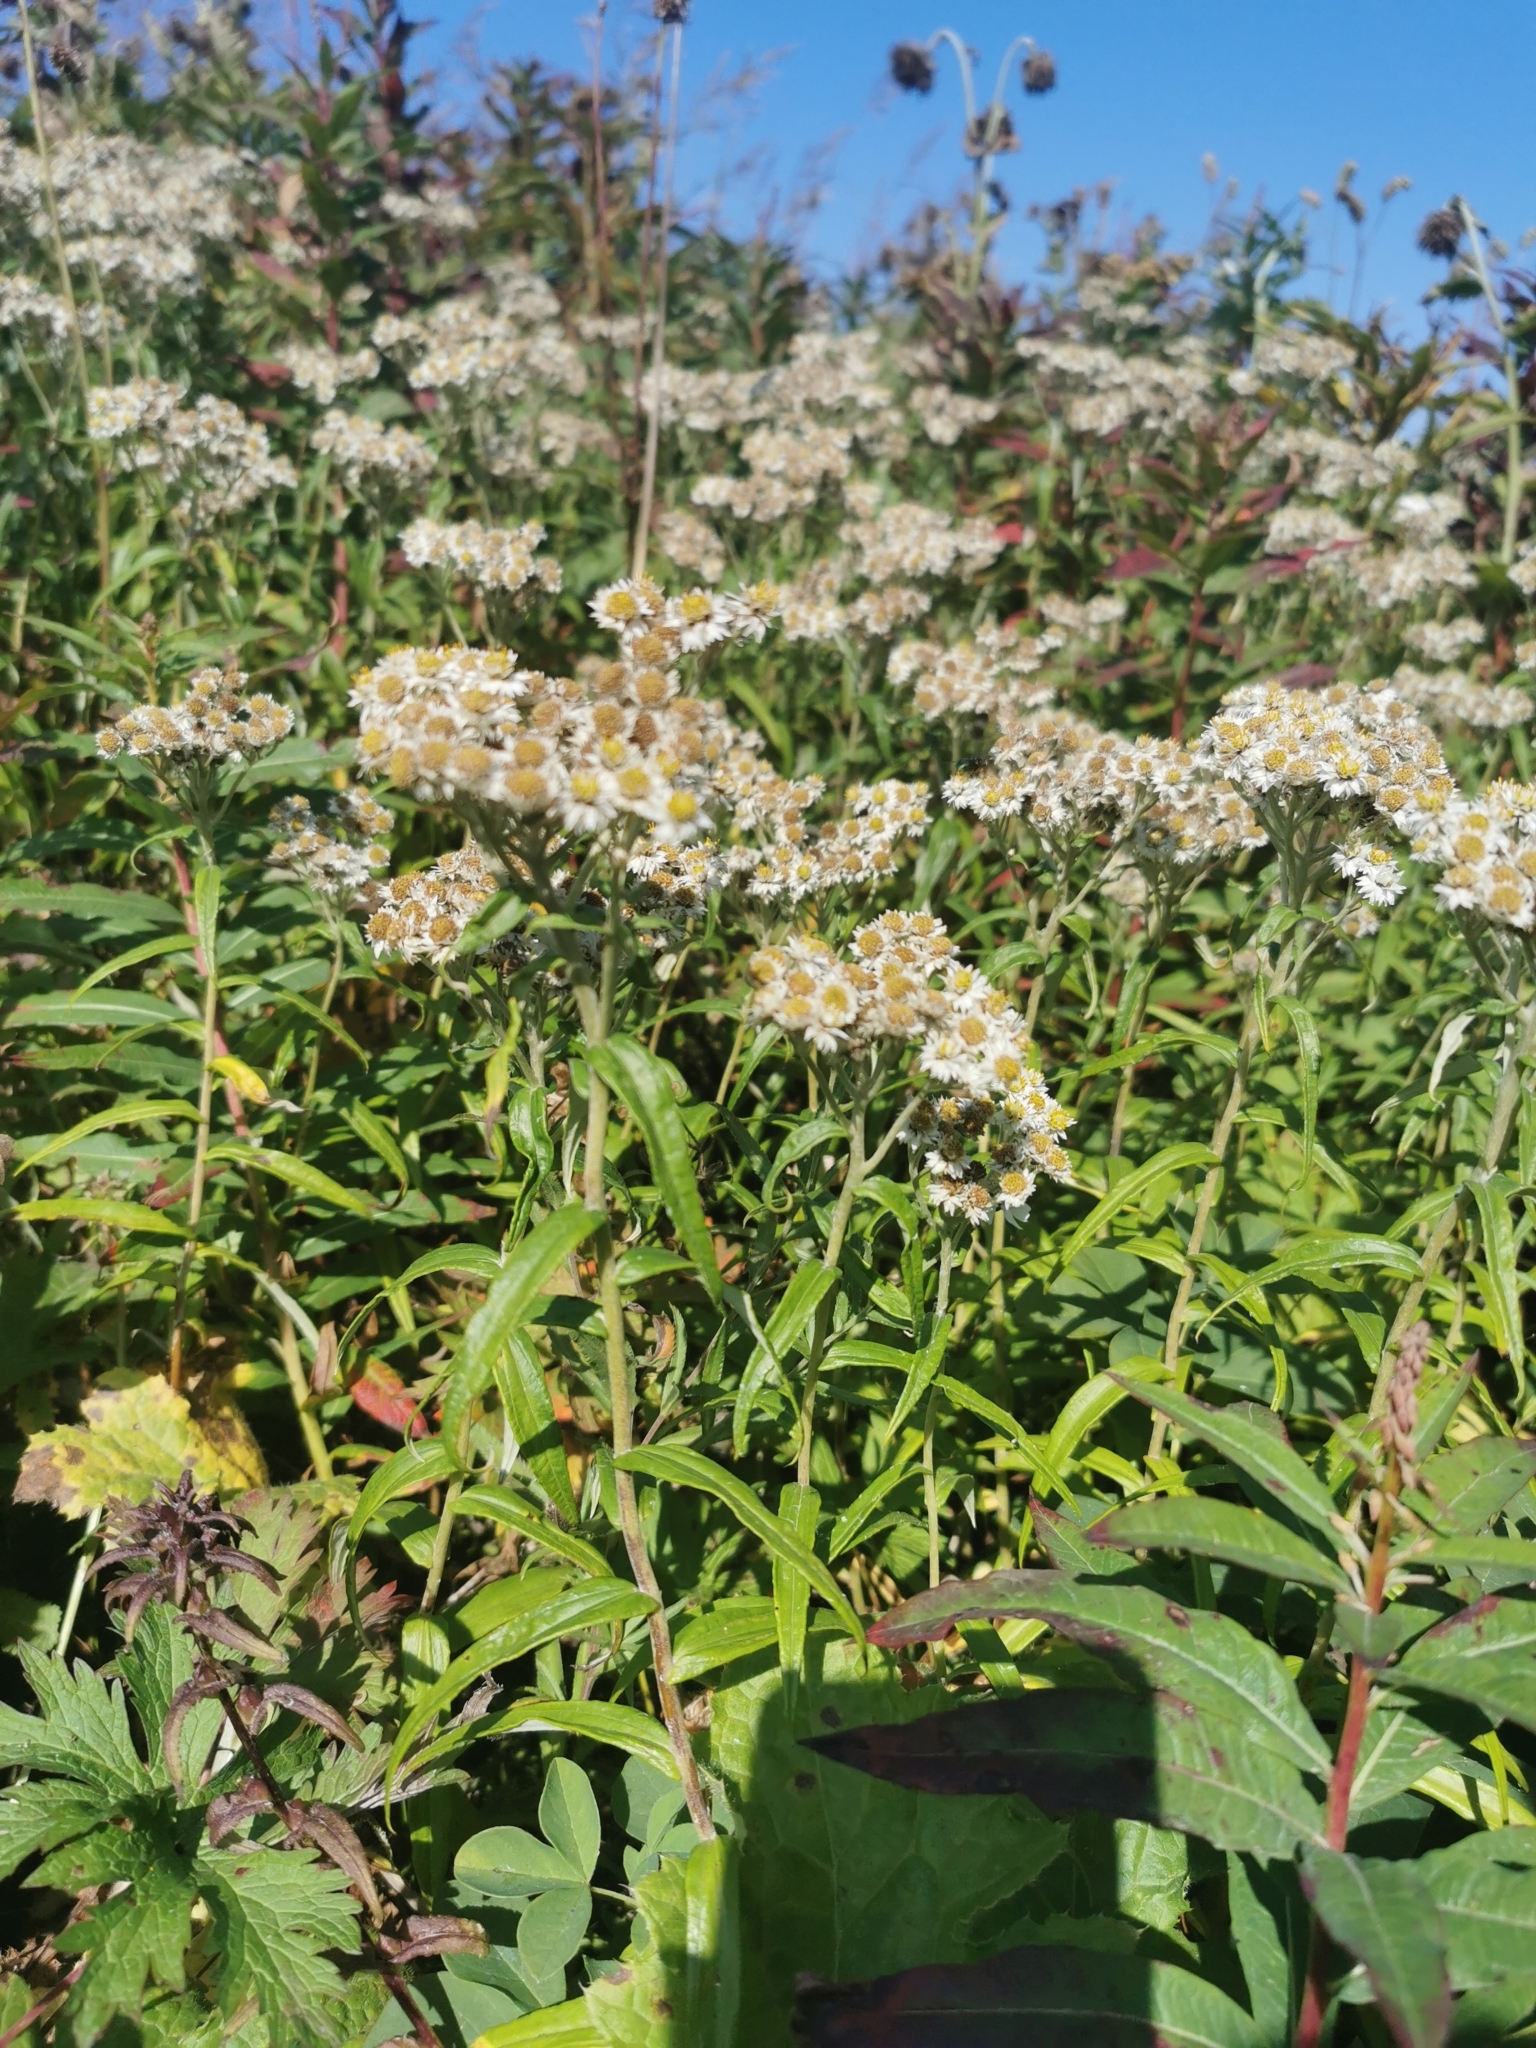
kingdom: Plantae
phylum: Tracheophyta
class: Magnoliopsida
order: Asterales
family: Asteraceae
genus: Anaphalis
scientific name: Anaphalis margaritacea
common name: Pearly everlasting
